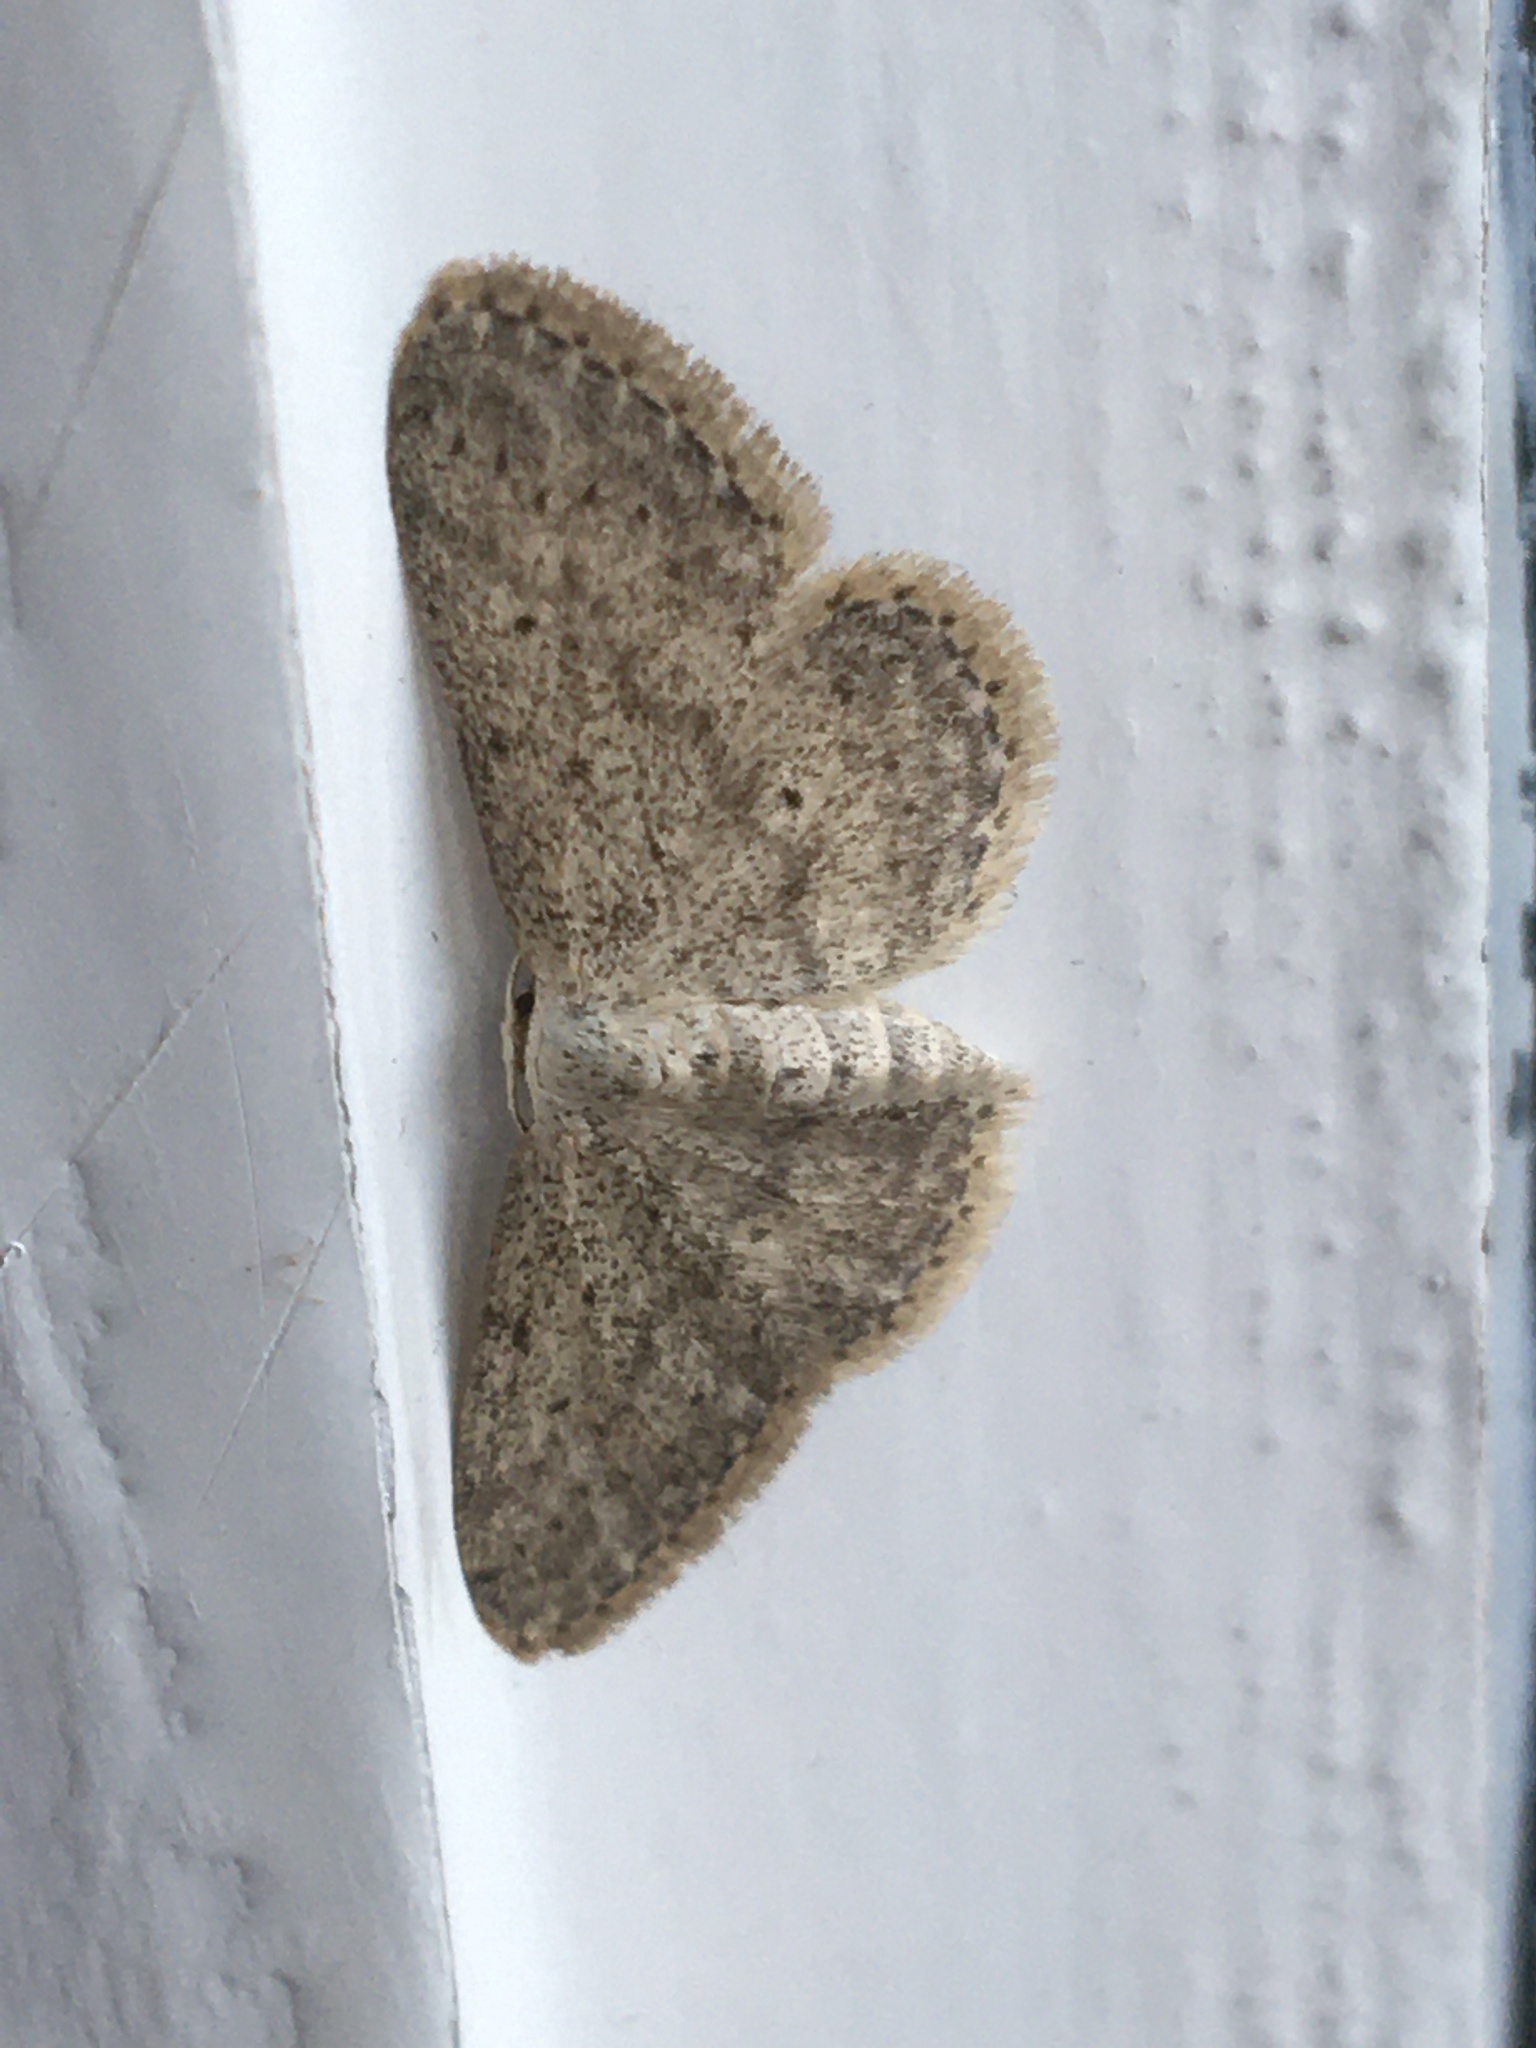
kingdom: Animalia
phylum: Arthropoda
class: Insecta
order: Lepidoptera
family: Geometridae
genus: Idaea
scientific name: Idaea seriata
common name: Small dusty wave
